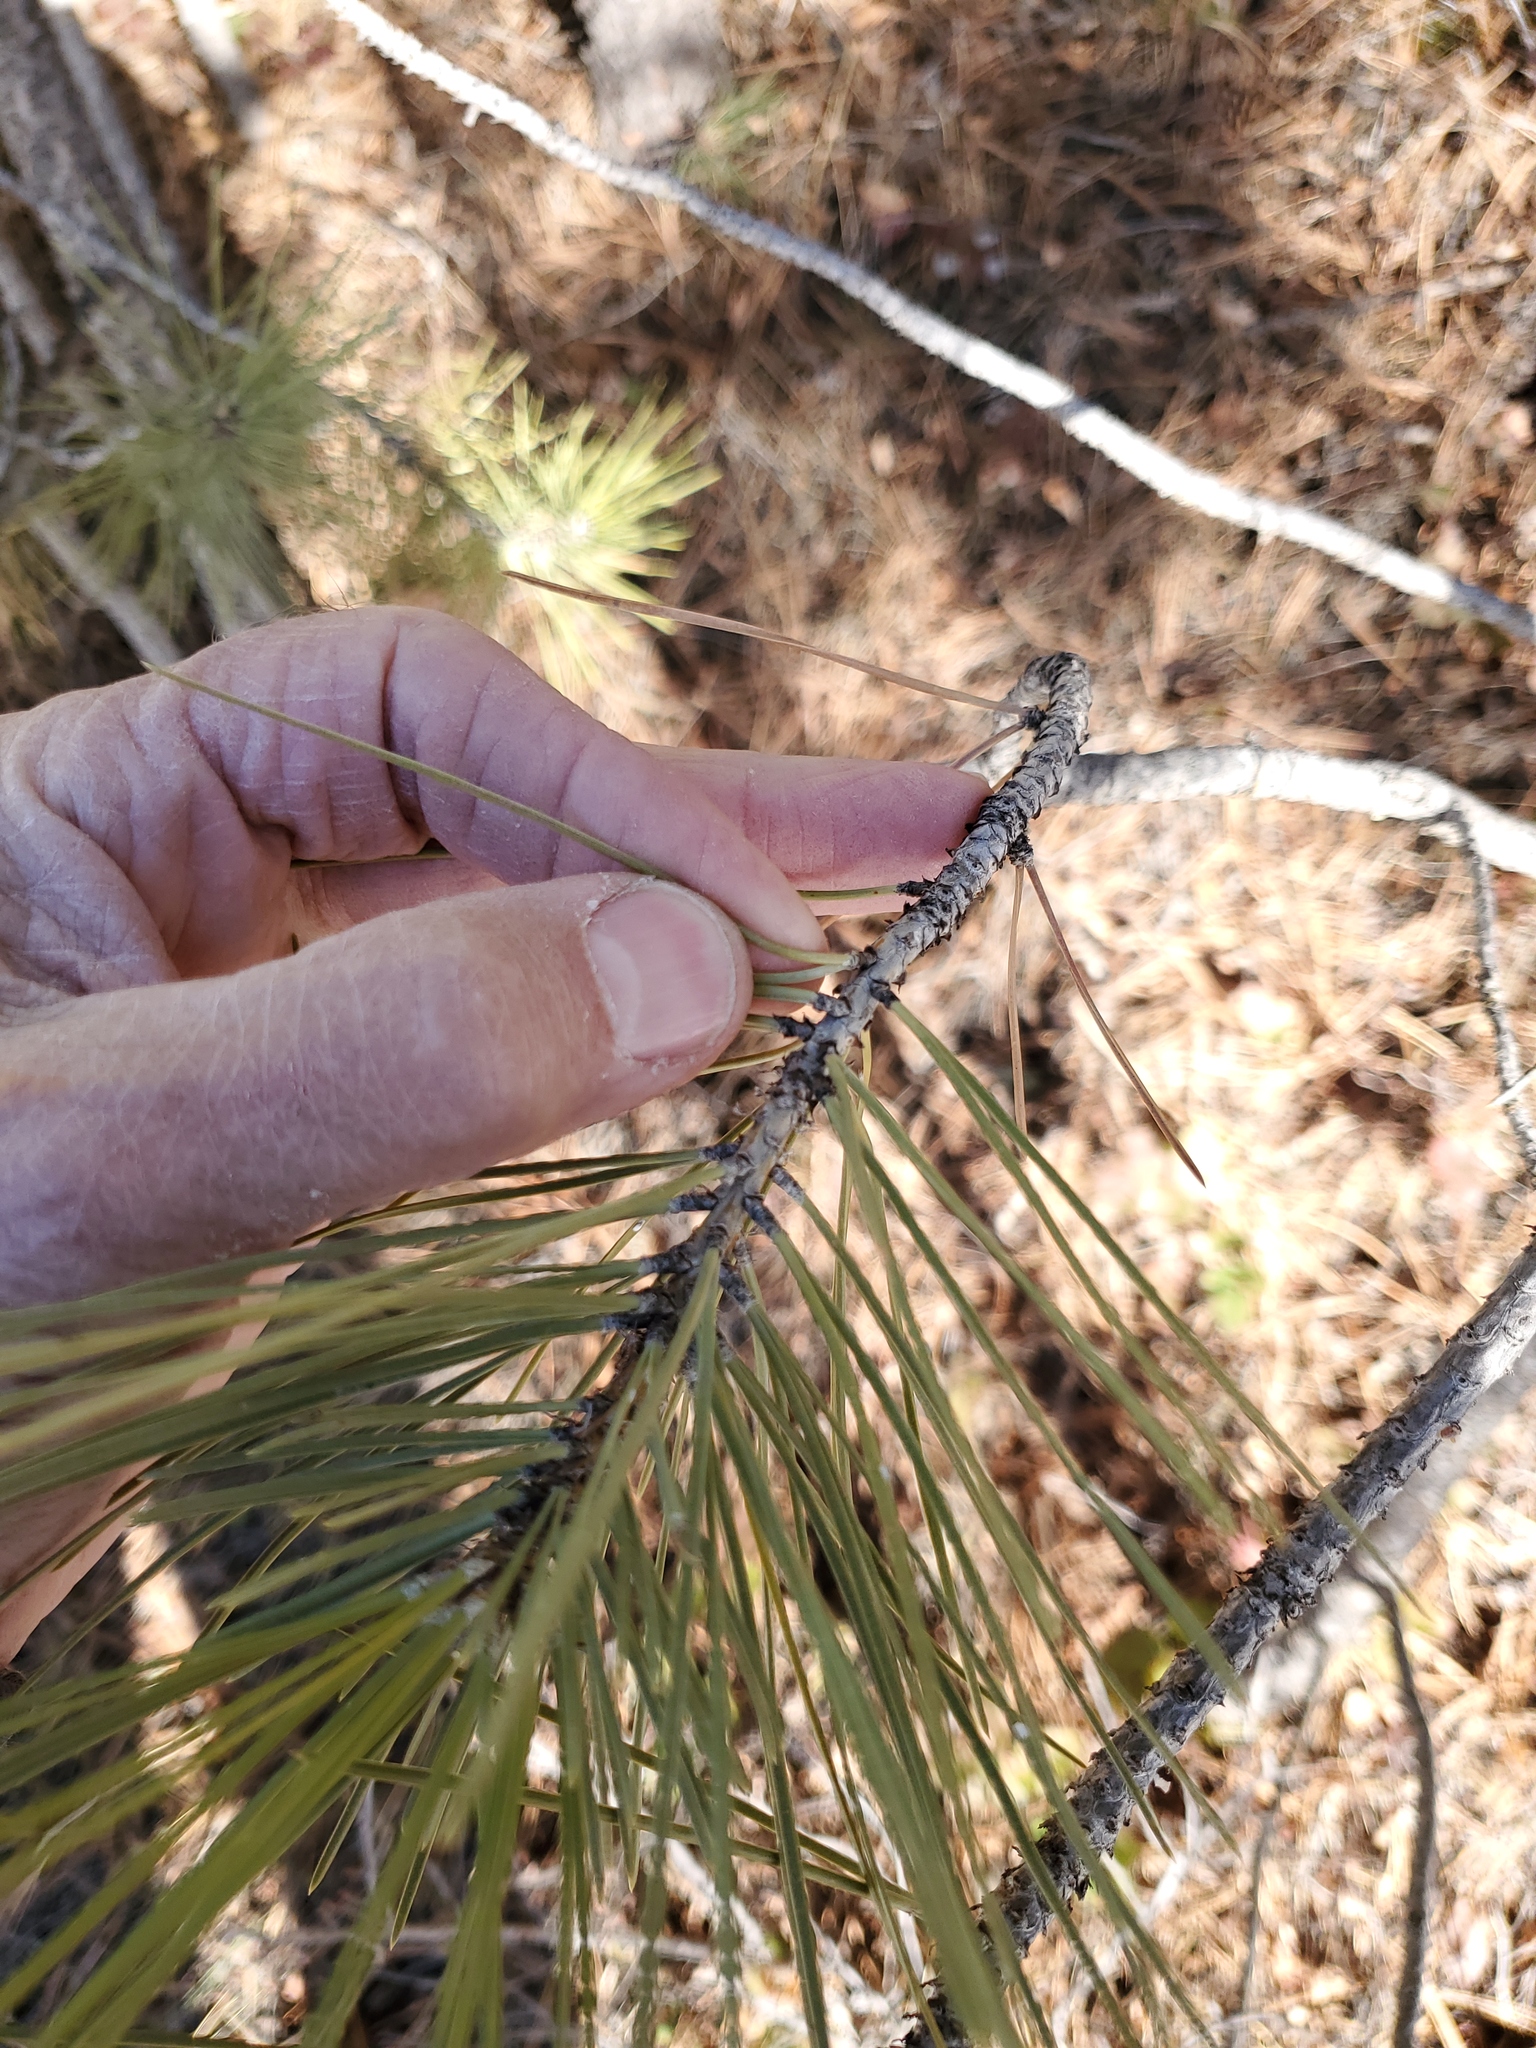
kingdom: Plantae
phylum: Tracheophyta
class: Pinopsida
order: Pinales
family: Pinaceae
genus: Pinus
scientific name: Pinus ponderosa
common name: Western yellow-pine
